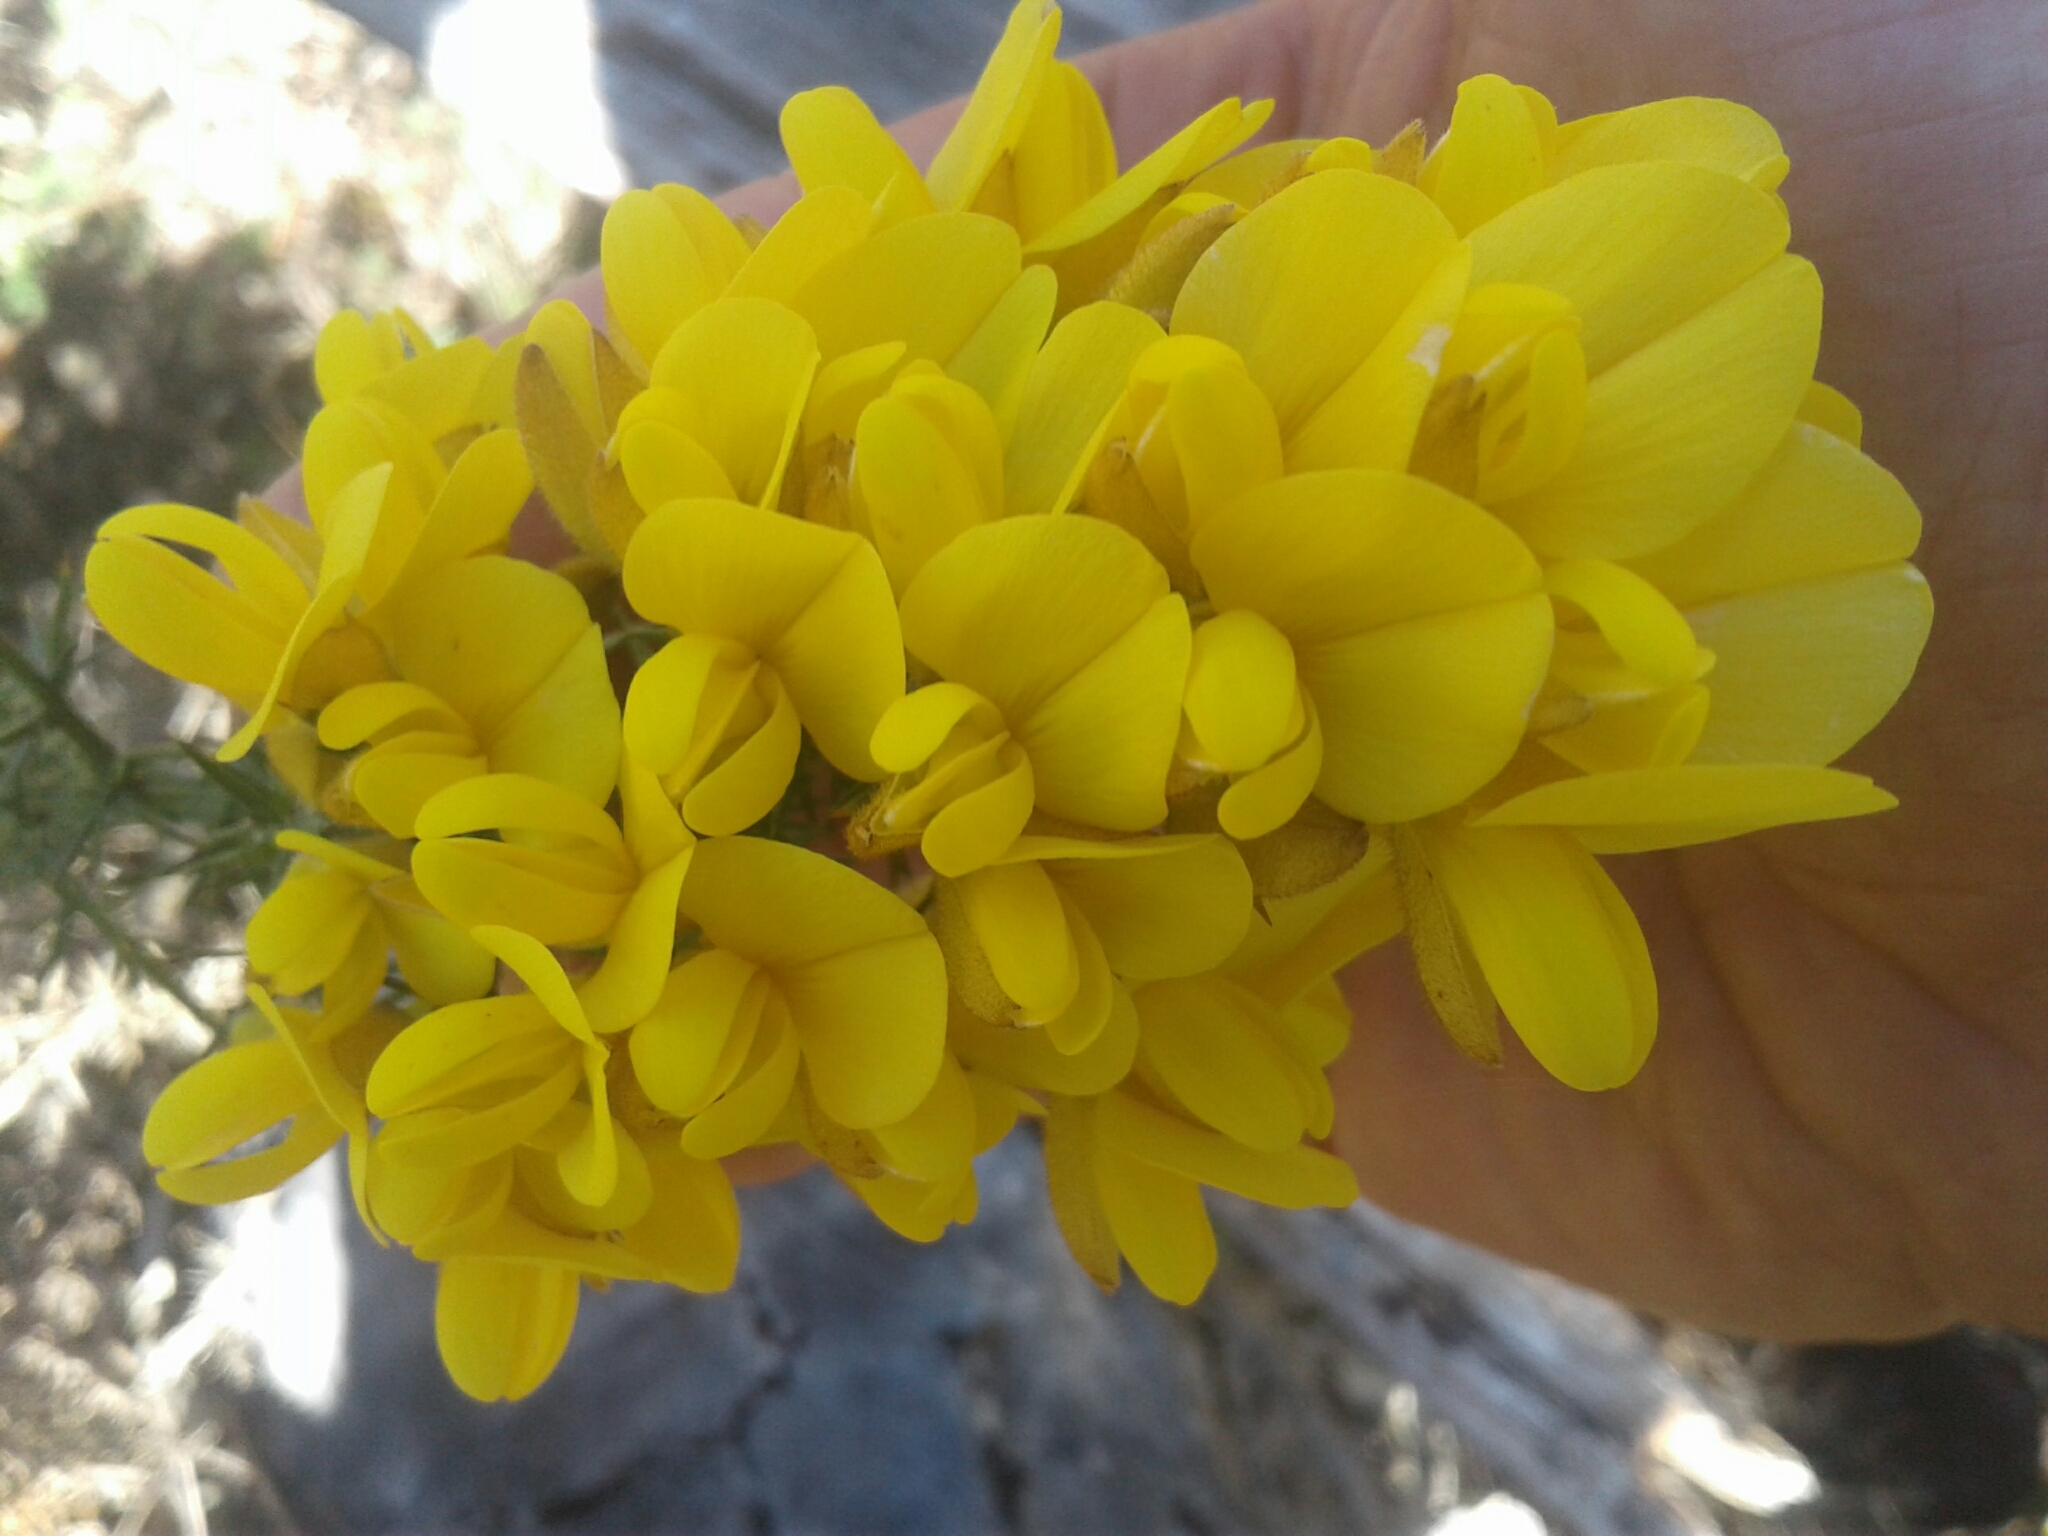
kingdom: Plantae
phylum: Tracheophyta
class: Magnoliopsida
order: Fabales
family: Fabaceae
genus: Ulex
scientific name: Ulex europaeus
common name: Common gorse
